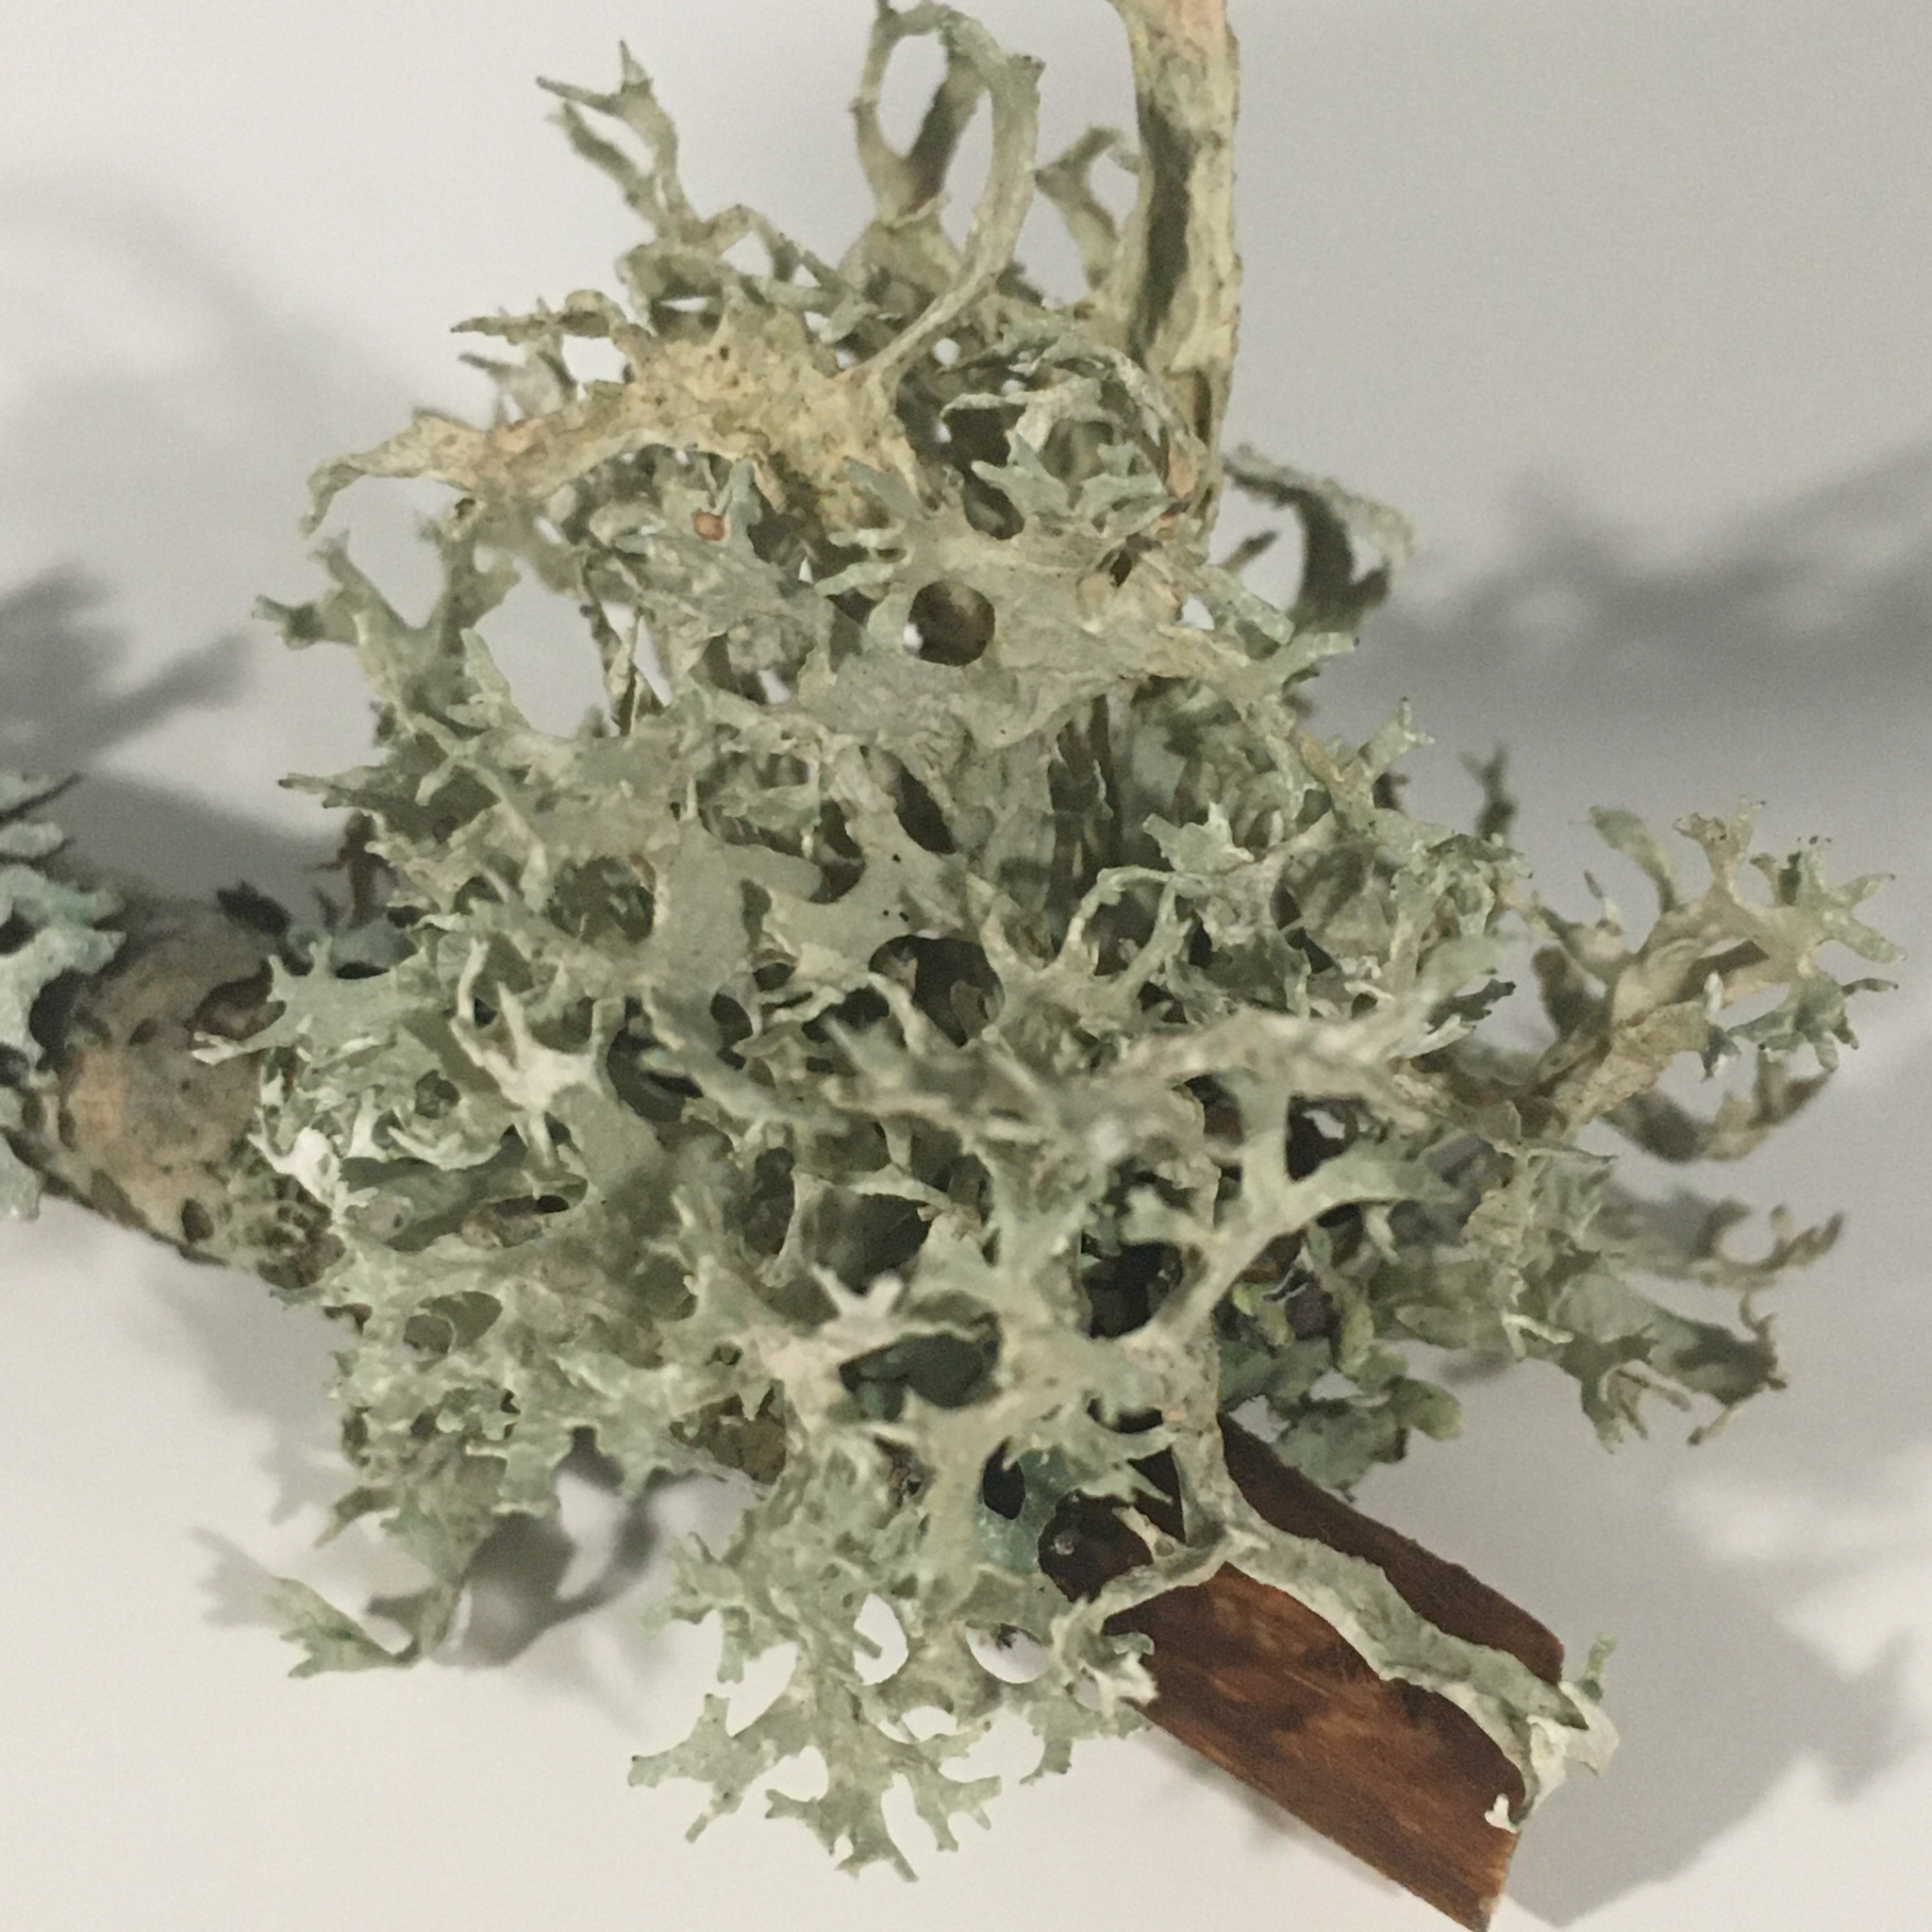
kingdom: Fungi
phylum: Ascomycota
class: Lecanoromycetes
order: Lecanorales
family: Parmeliaceae
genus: Evernia
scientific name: Evernia prunastri
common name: Oak moss
